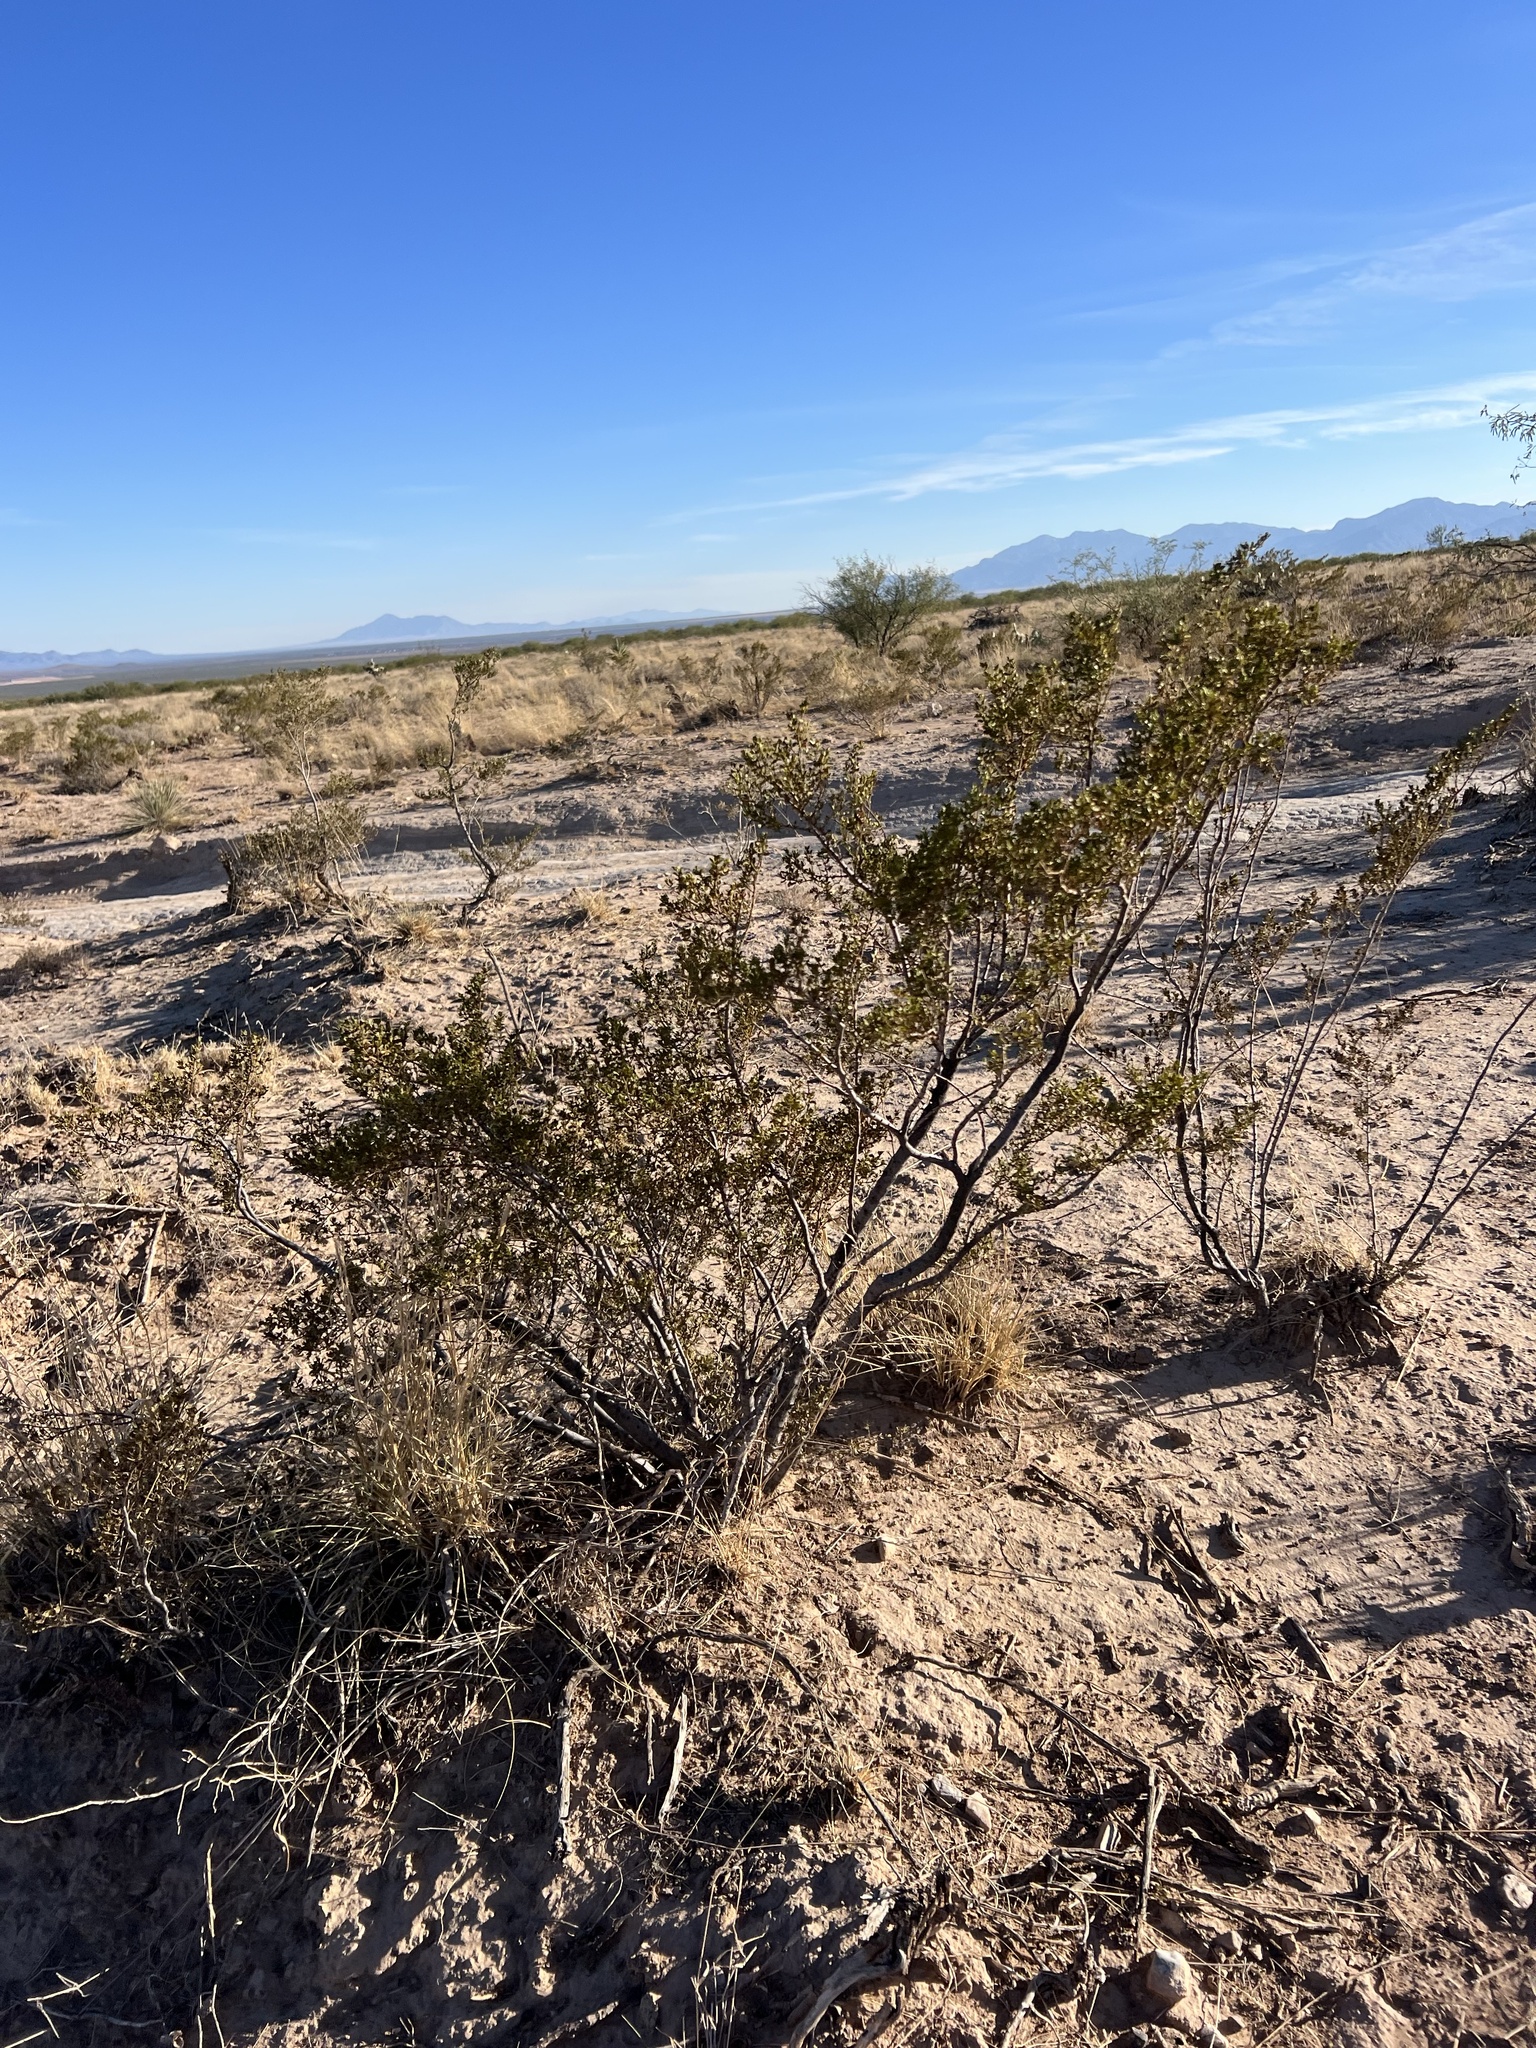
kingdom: Plantae
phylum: Tracheophyta
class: Magnoliopsida
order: Zygophyllales
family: Zygophyllaceae
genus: Larrea
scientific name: Larrea tridentata
